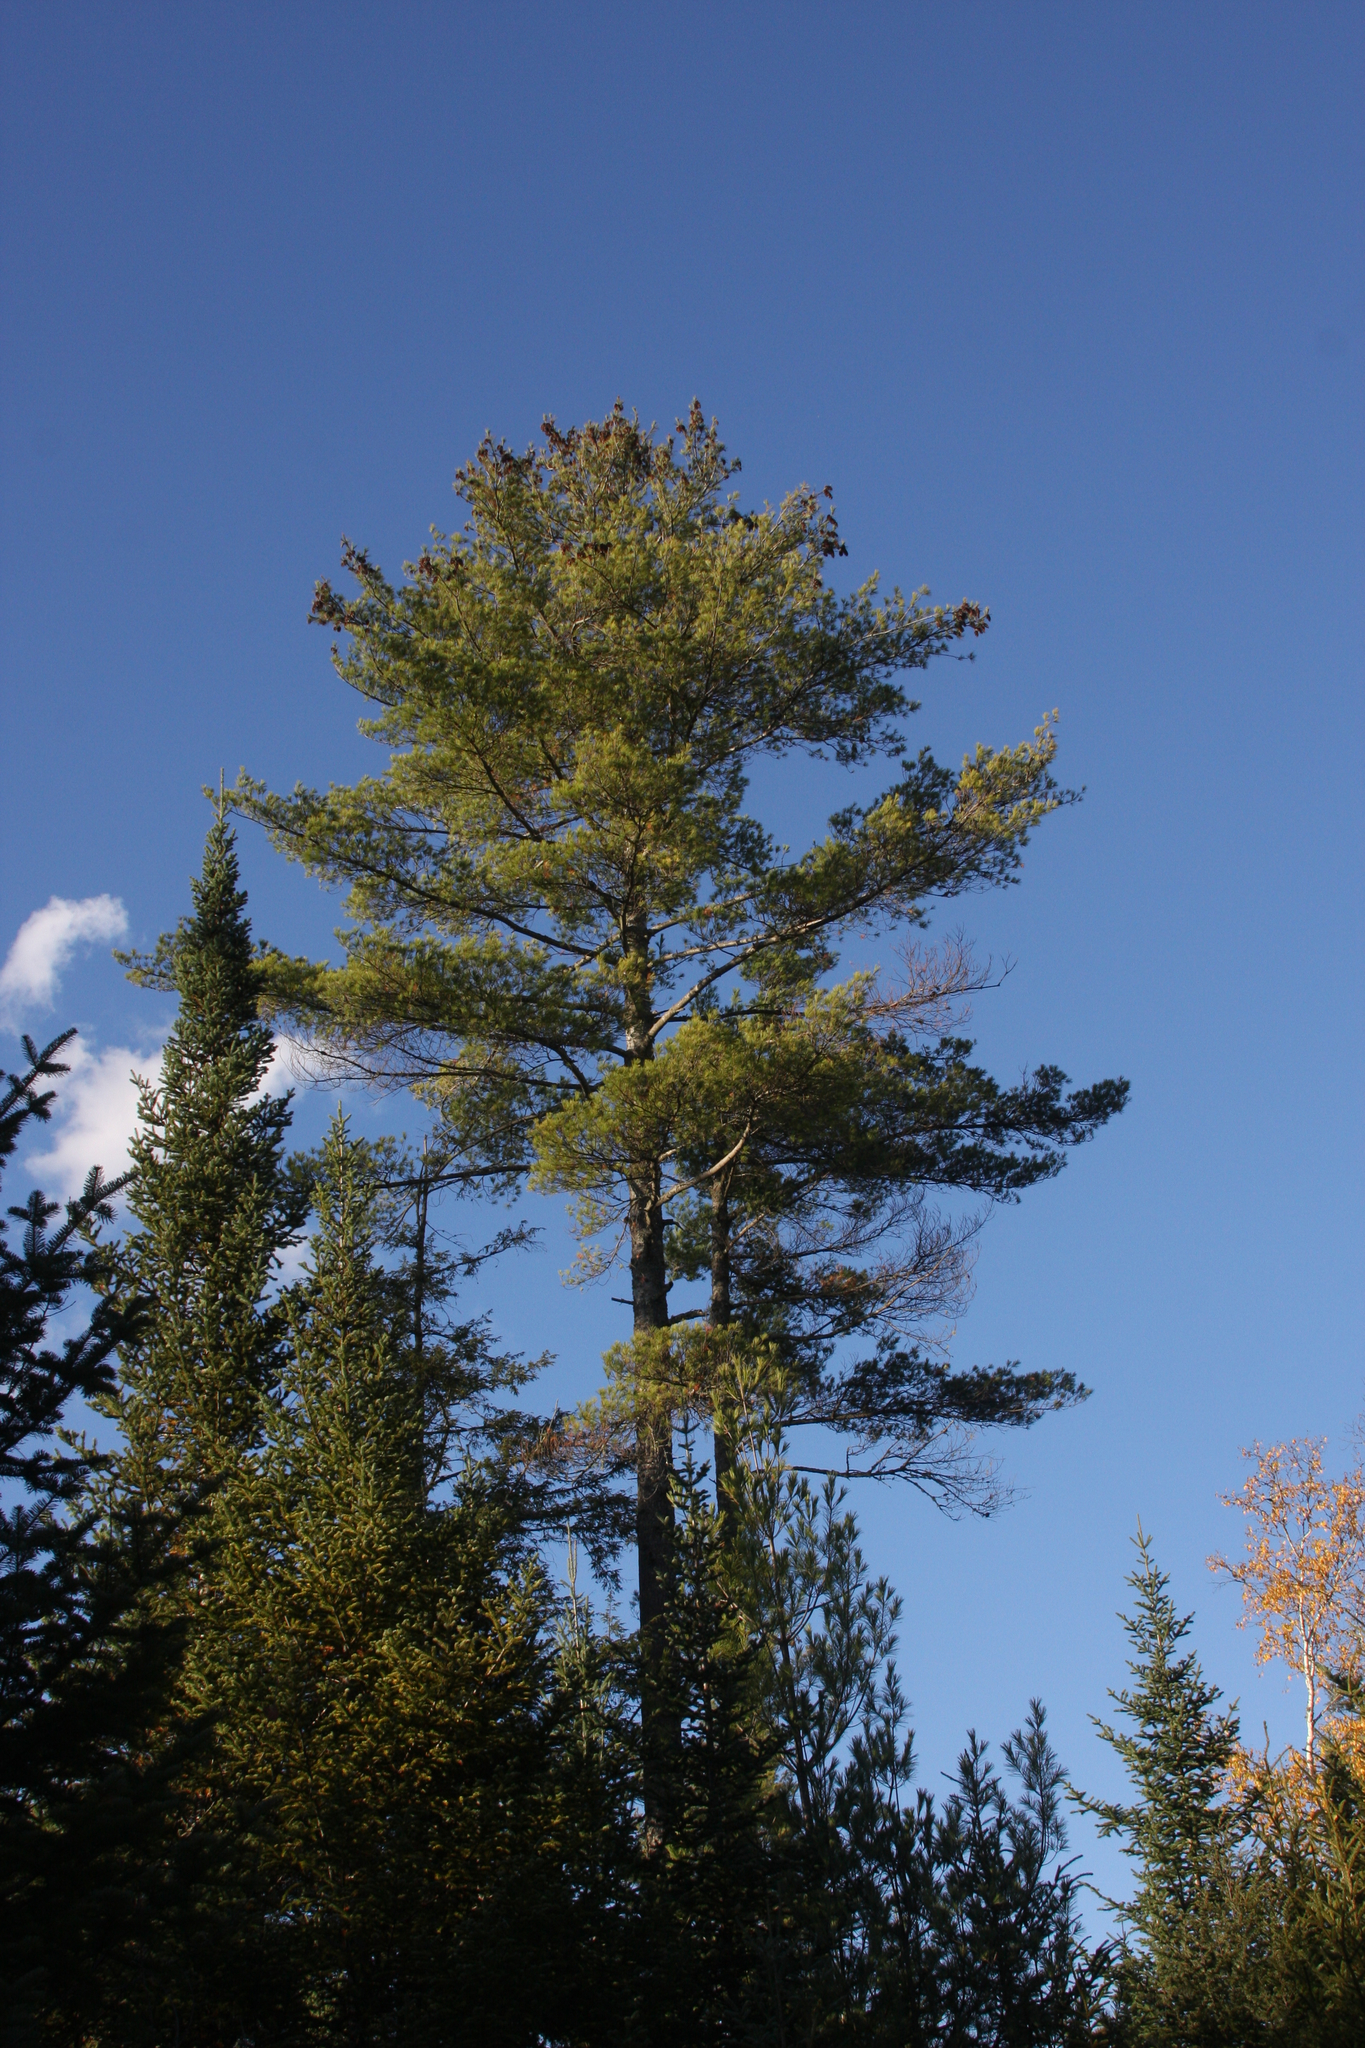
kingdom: Plantae
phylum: Tracheophyta
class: Pinopsida
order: Pinales
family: Pinaceae
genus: Pinus
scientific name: Pinus strobus
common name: Weymouth pine
